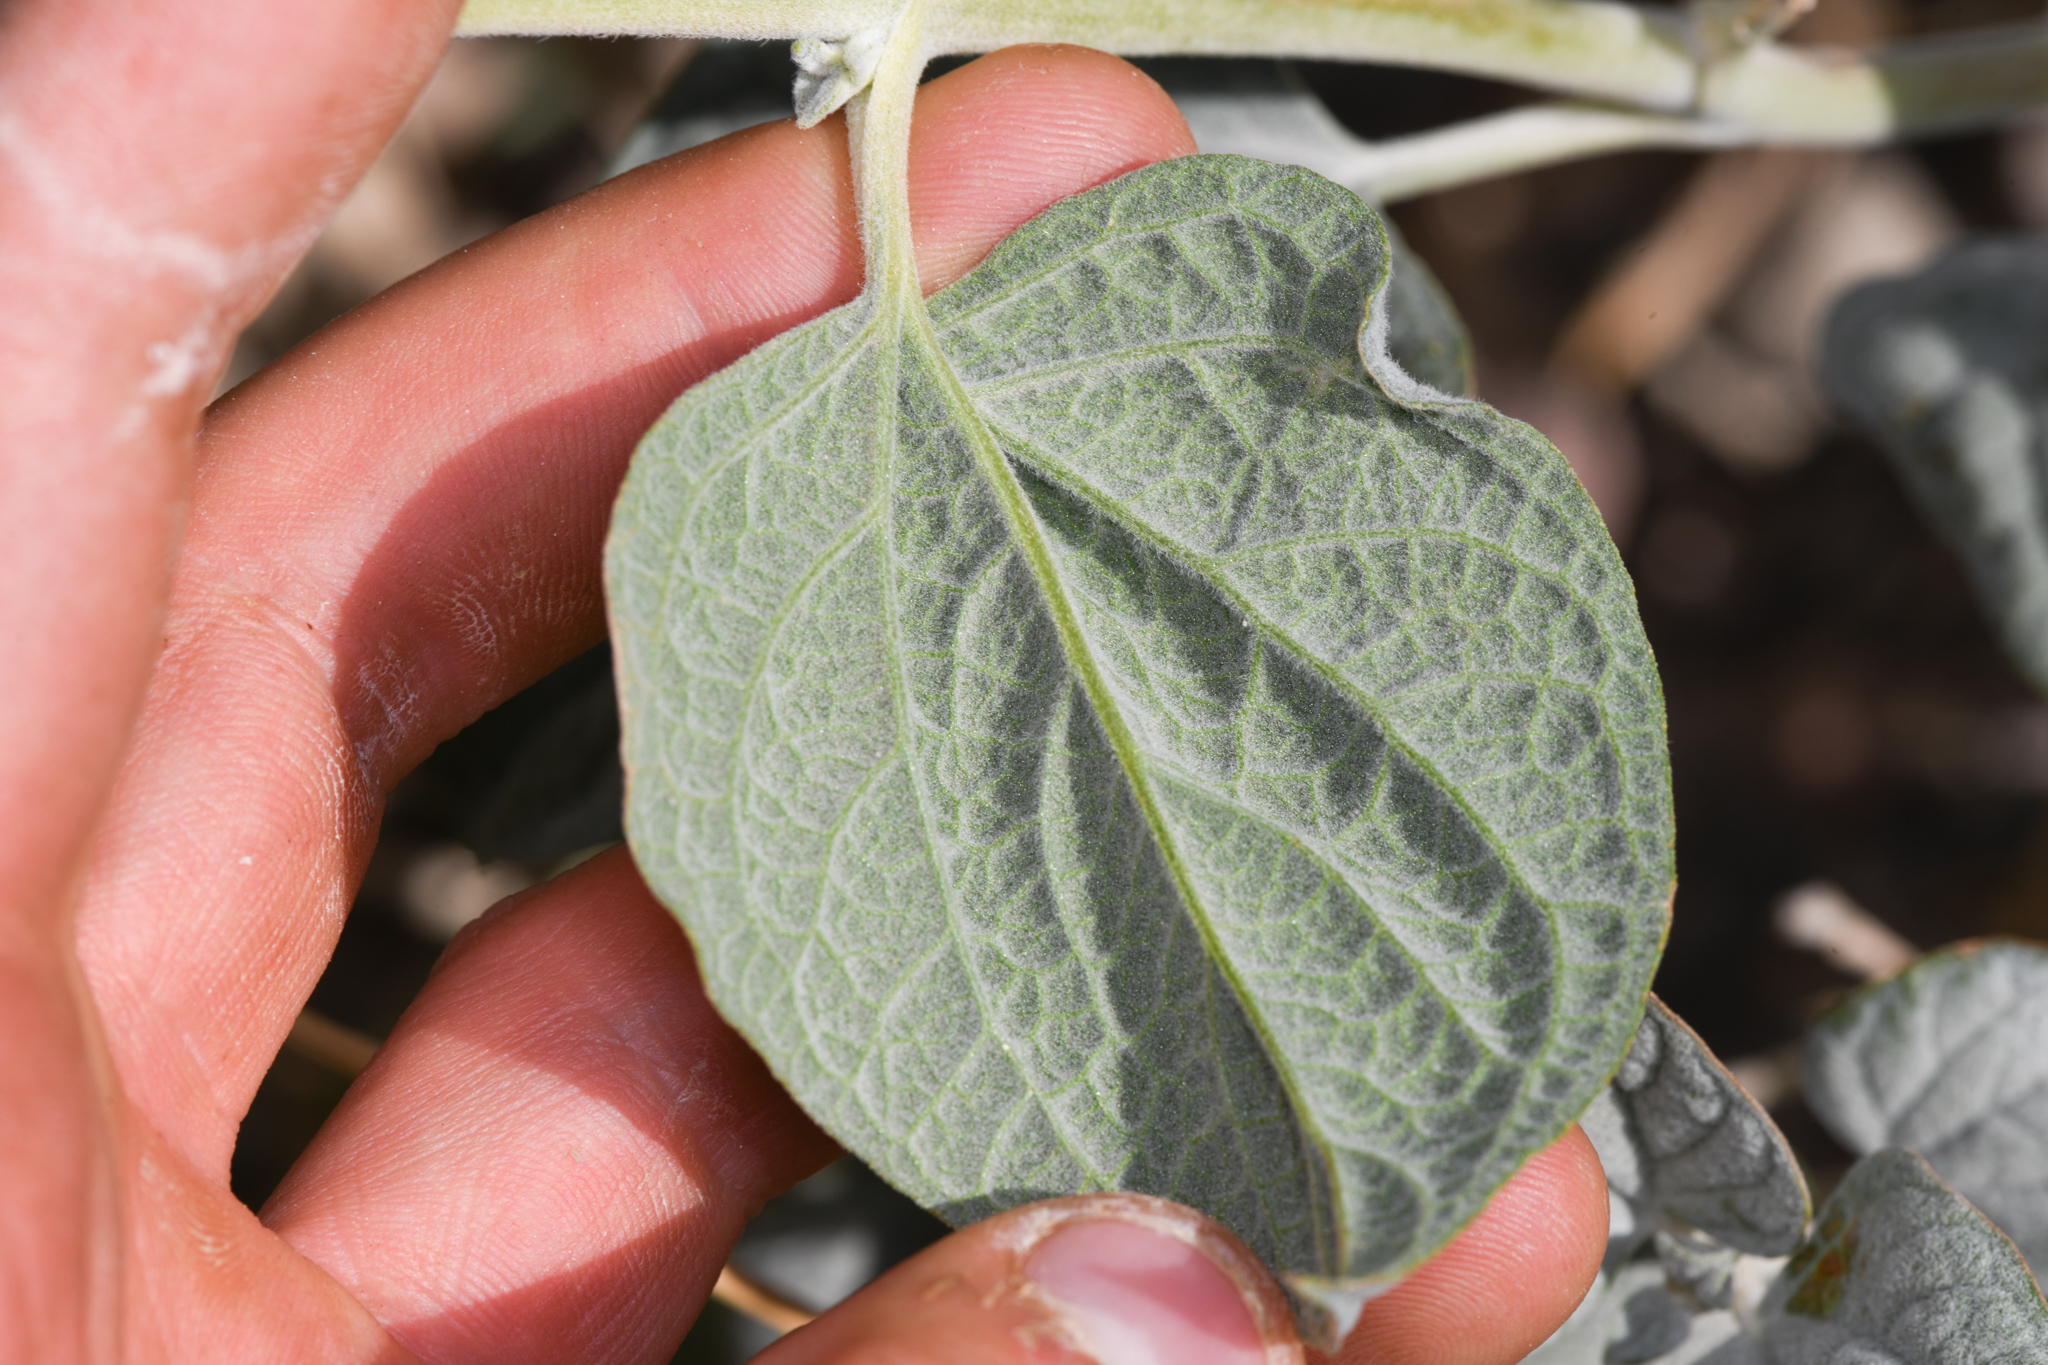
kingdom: Plantae
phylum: Tracheophyta
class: Magnoliopsida
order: Asterales
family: Asteraceae
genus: Bahiopsis
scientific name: Bahiopsis reticulata
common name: Death valley goldeneye
